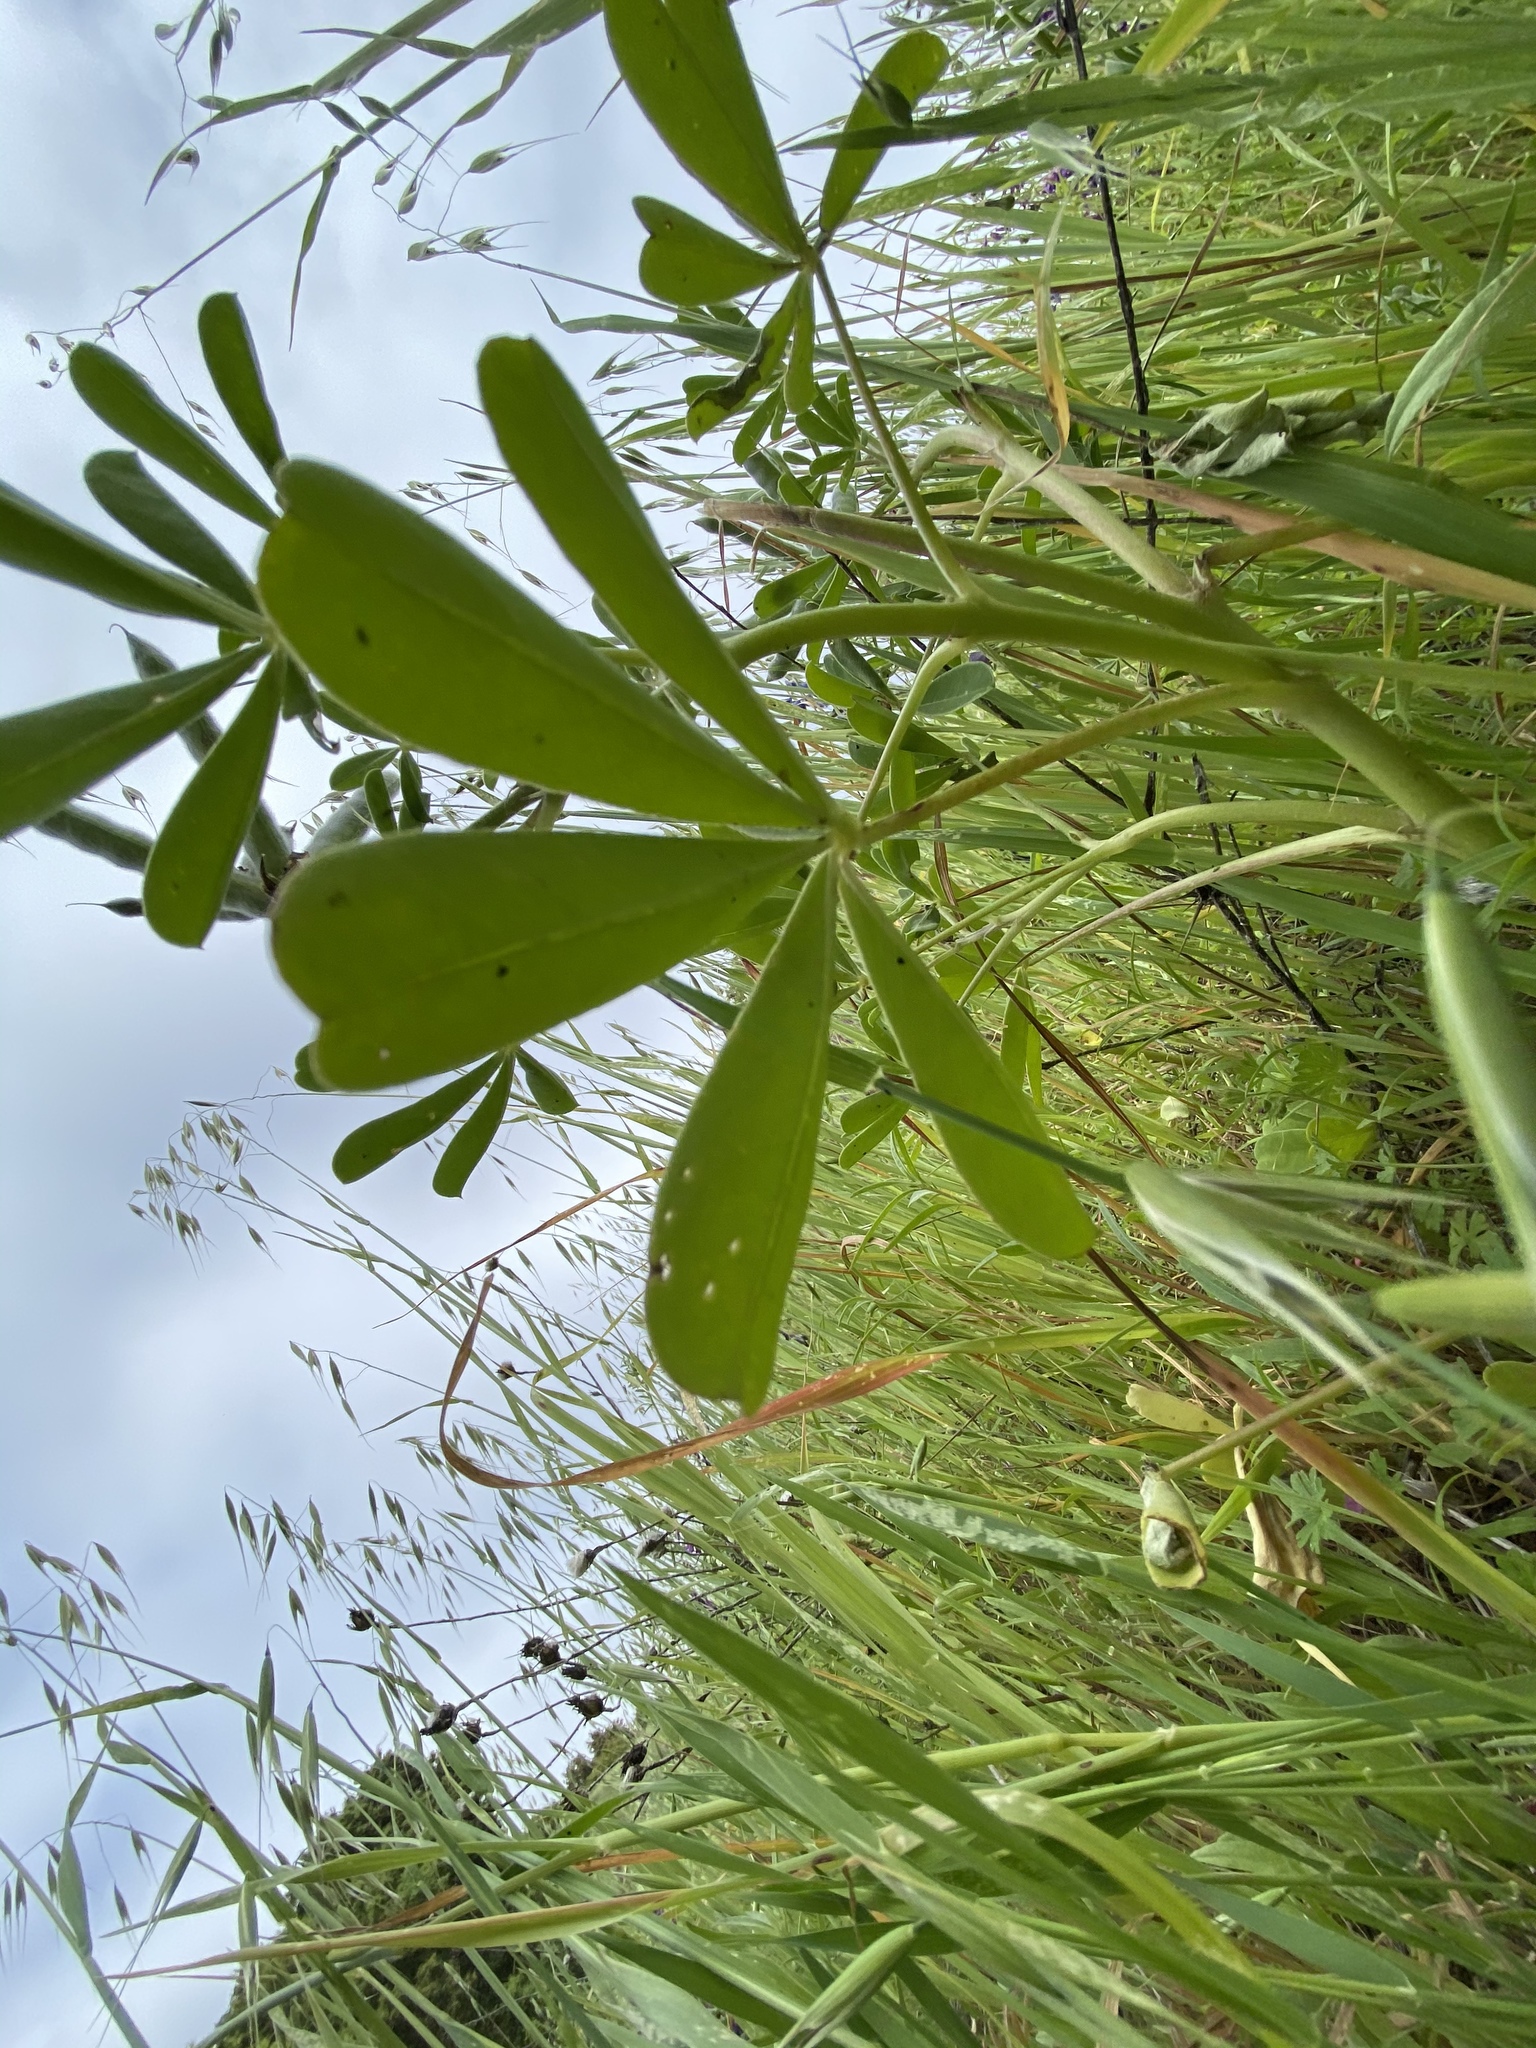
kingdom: Plantae
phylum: Tracheophyta
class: Magnoliopsida
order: Fabales
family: Fabaceae
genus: Lupinus
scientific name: Lupinus succulentus
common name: Arroyo lupine
